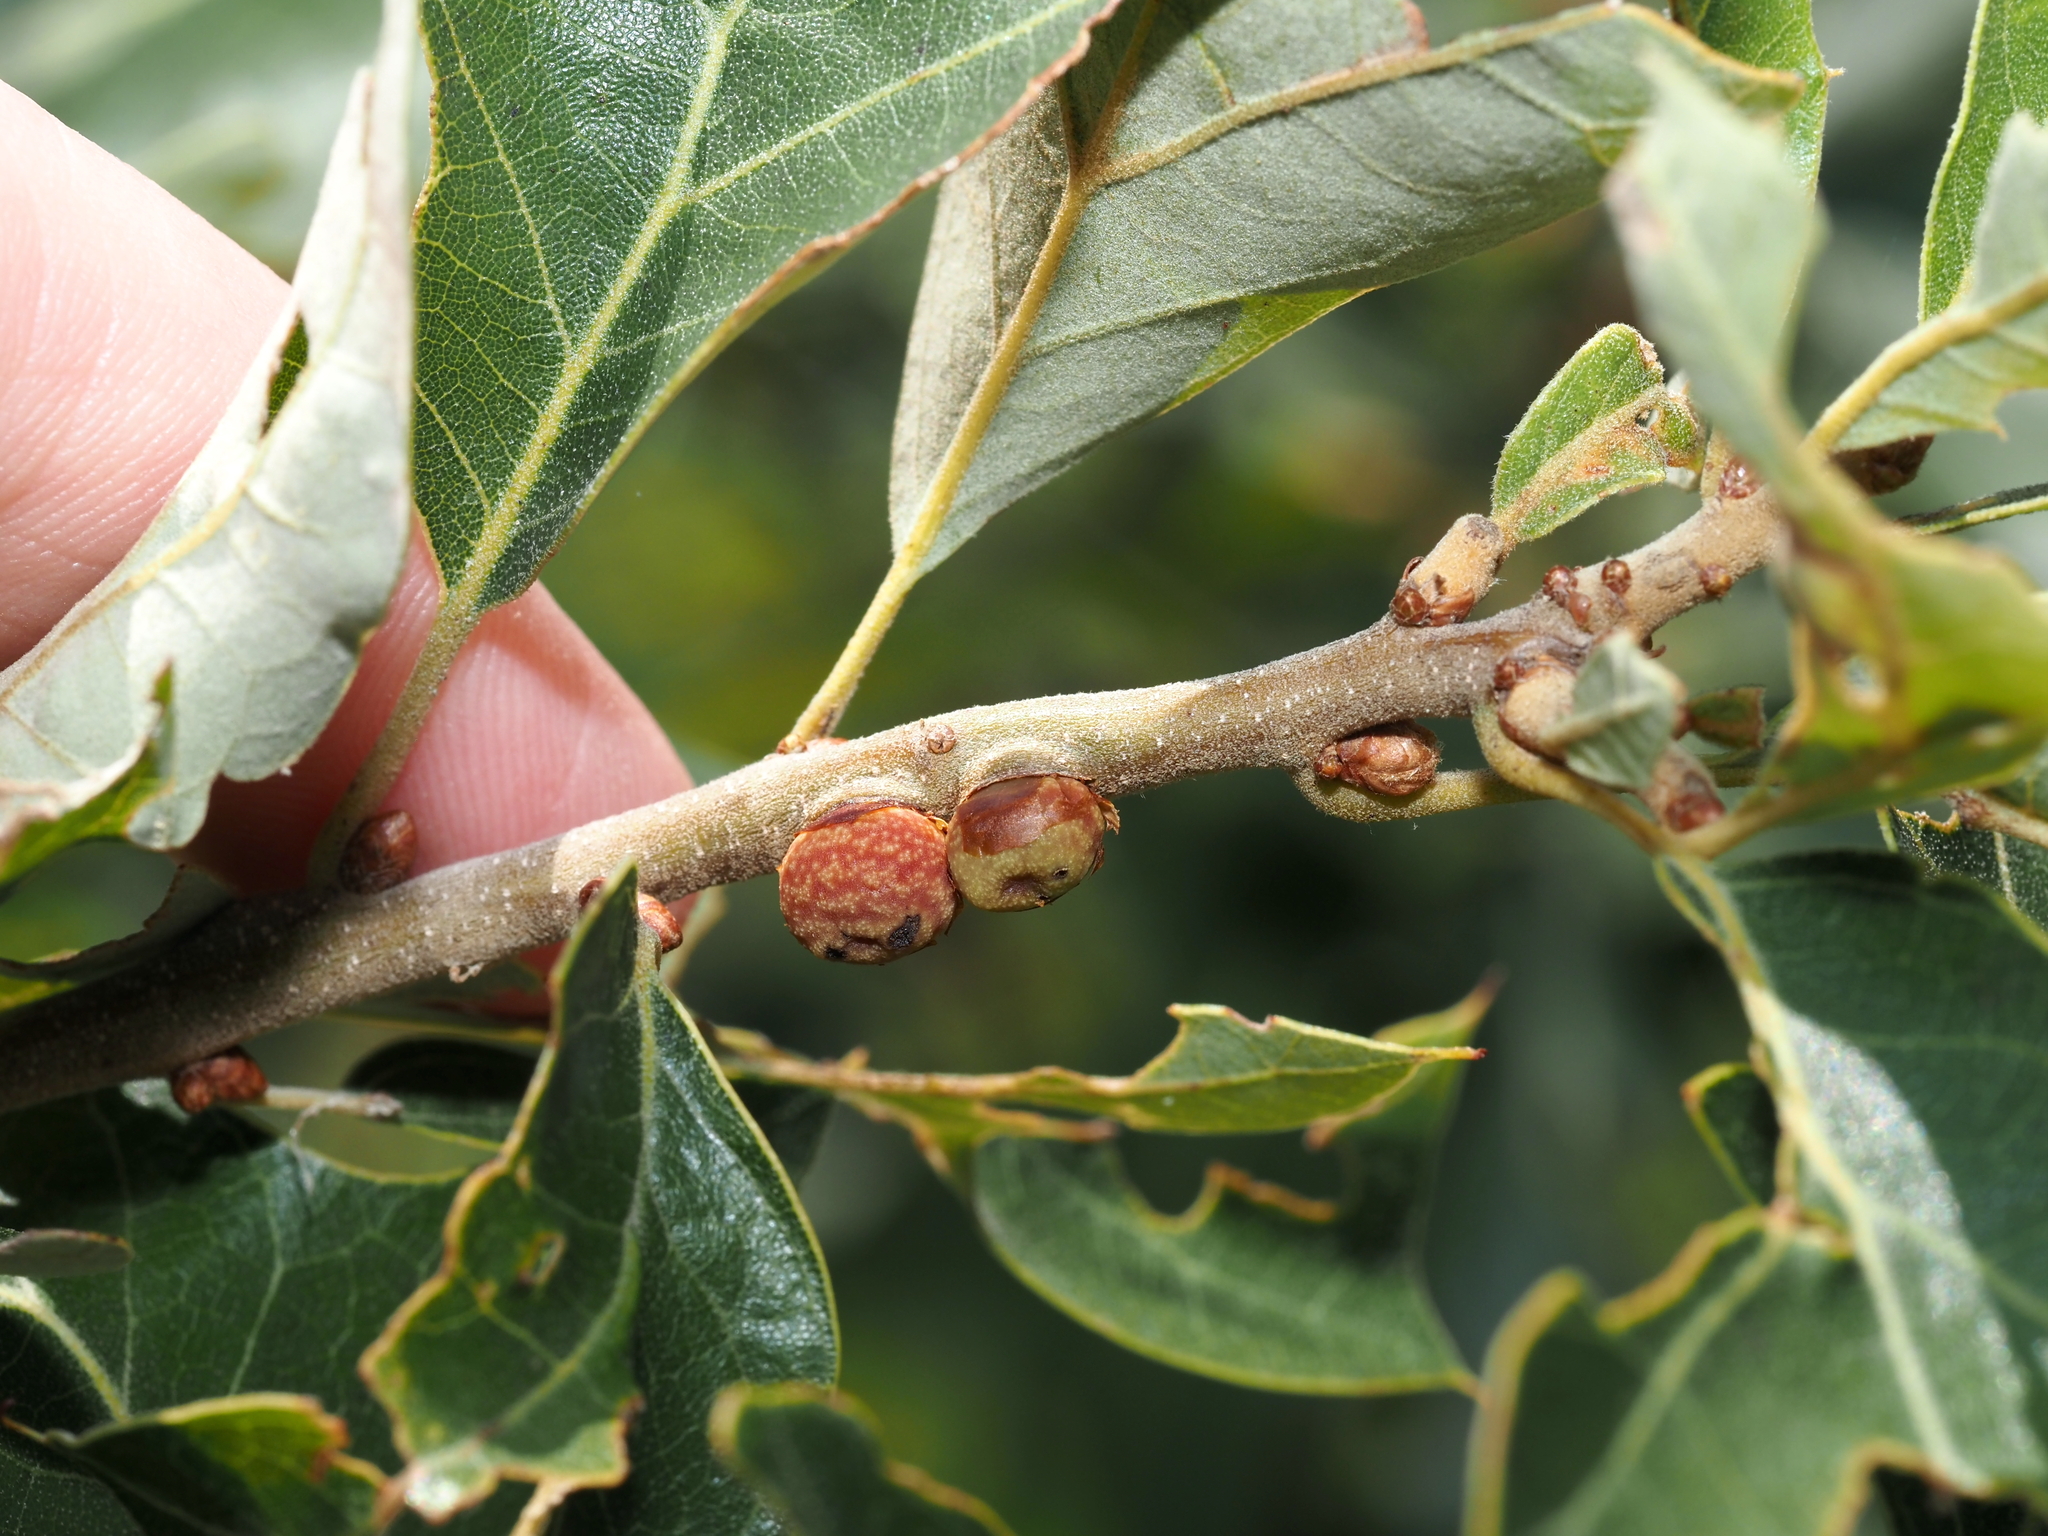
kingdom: Animalia
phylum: Arthropoda
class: Insecta
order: Hymenoptera
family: Cynipidae
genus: Kokkocynips
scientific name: Kokkocynips imbricariae
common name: Banded bullet gall wasp
